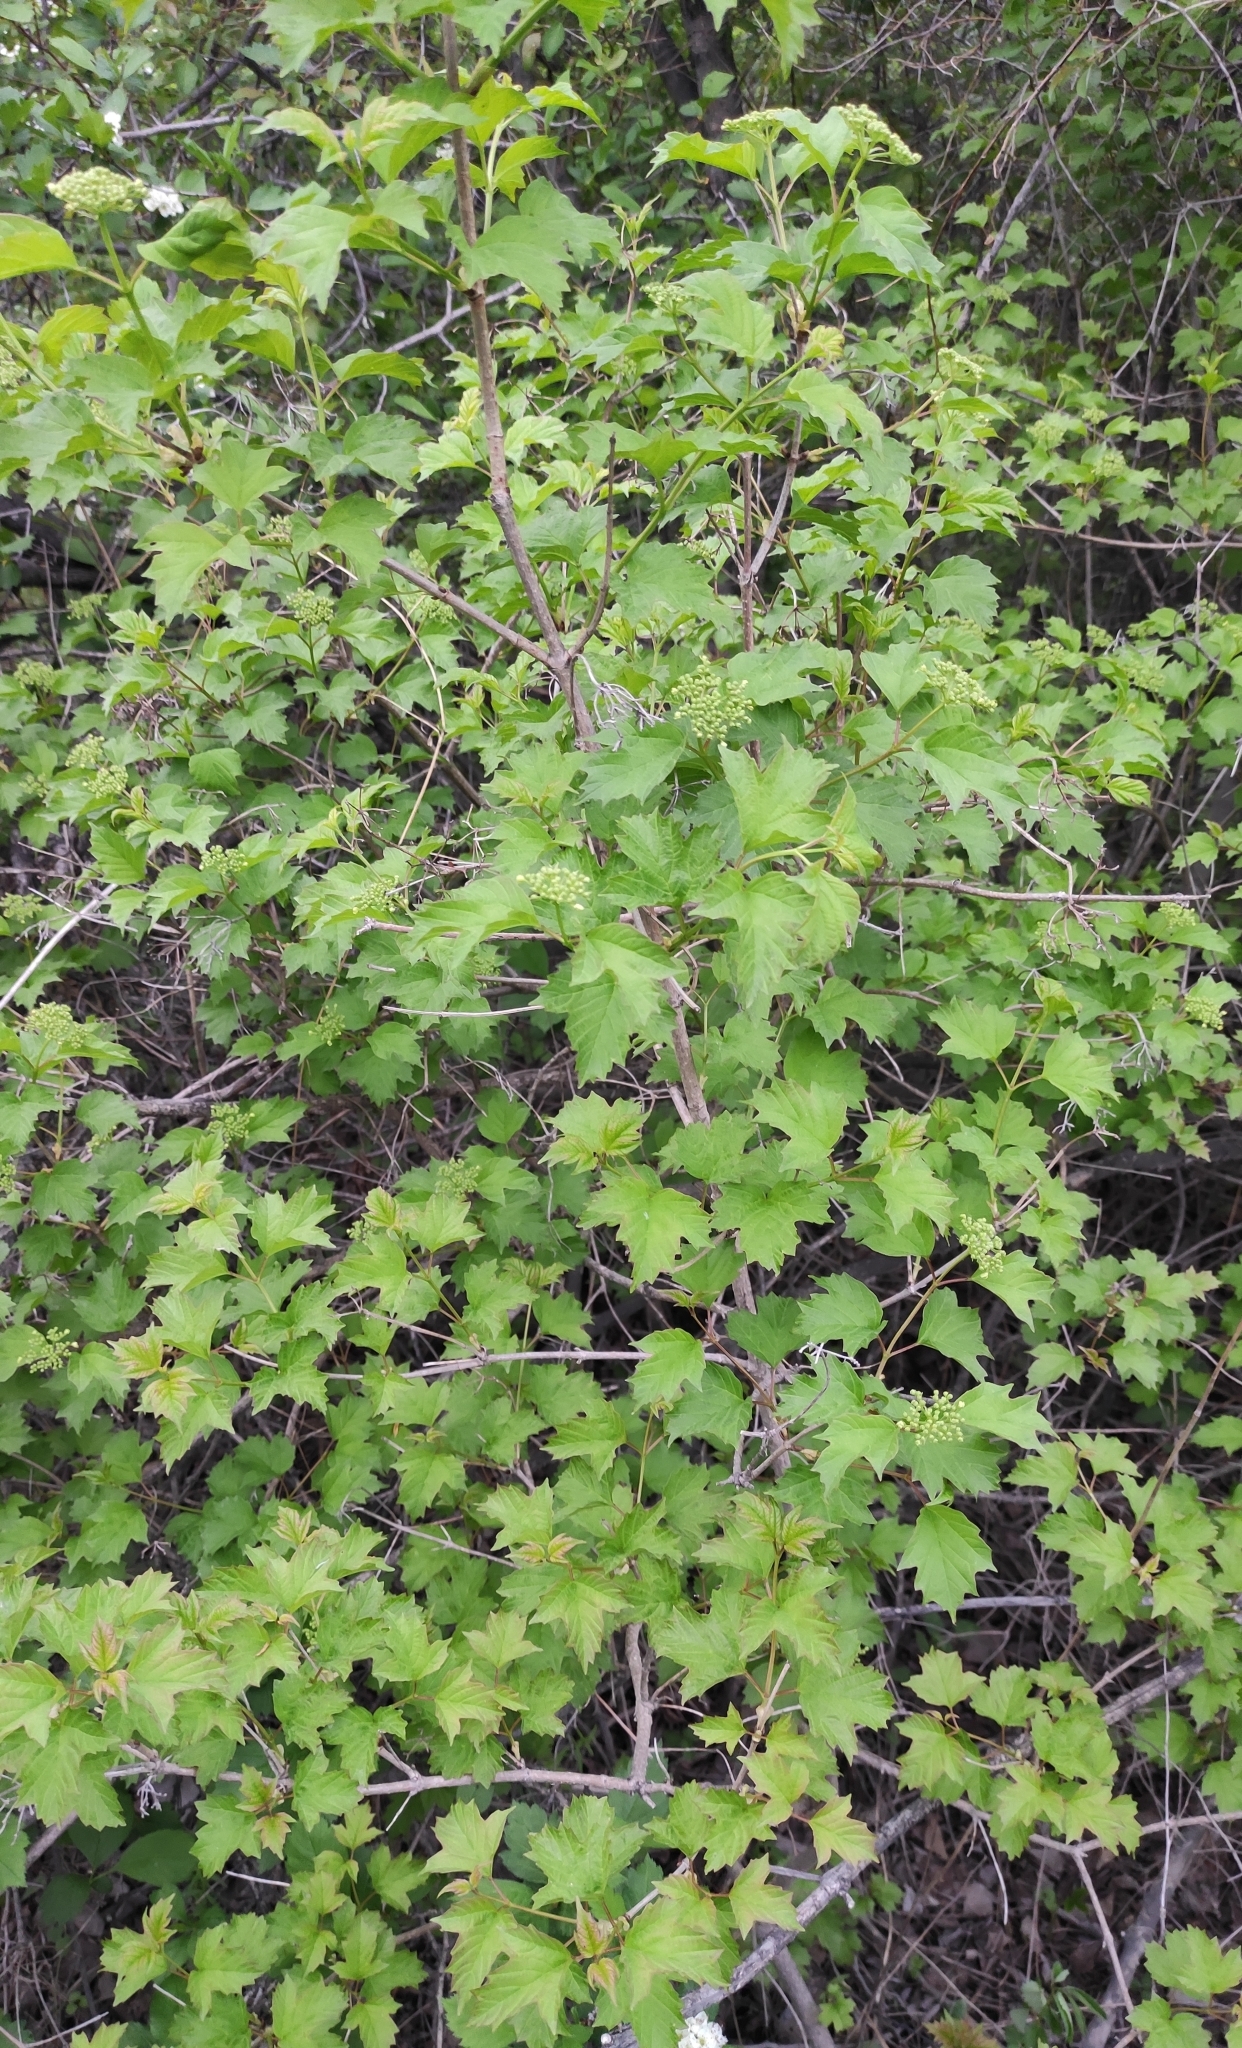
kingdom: Plantae
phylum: Tracheophyta
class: Magnoliopsida
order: Dipsacales
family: Viburnaceae
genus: Viburnum
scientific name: Viburnum opulus
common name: Guelder-rose
